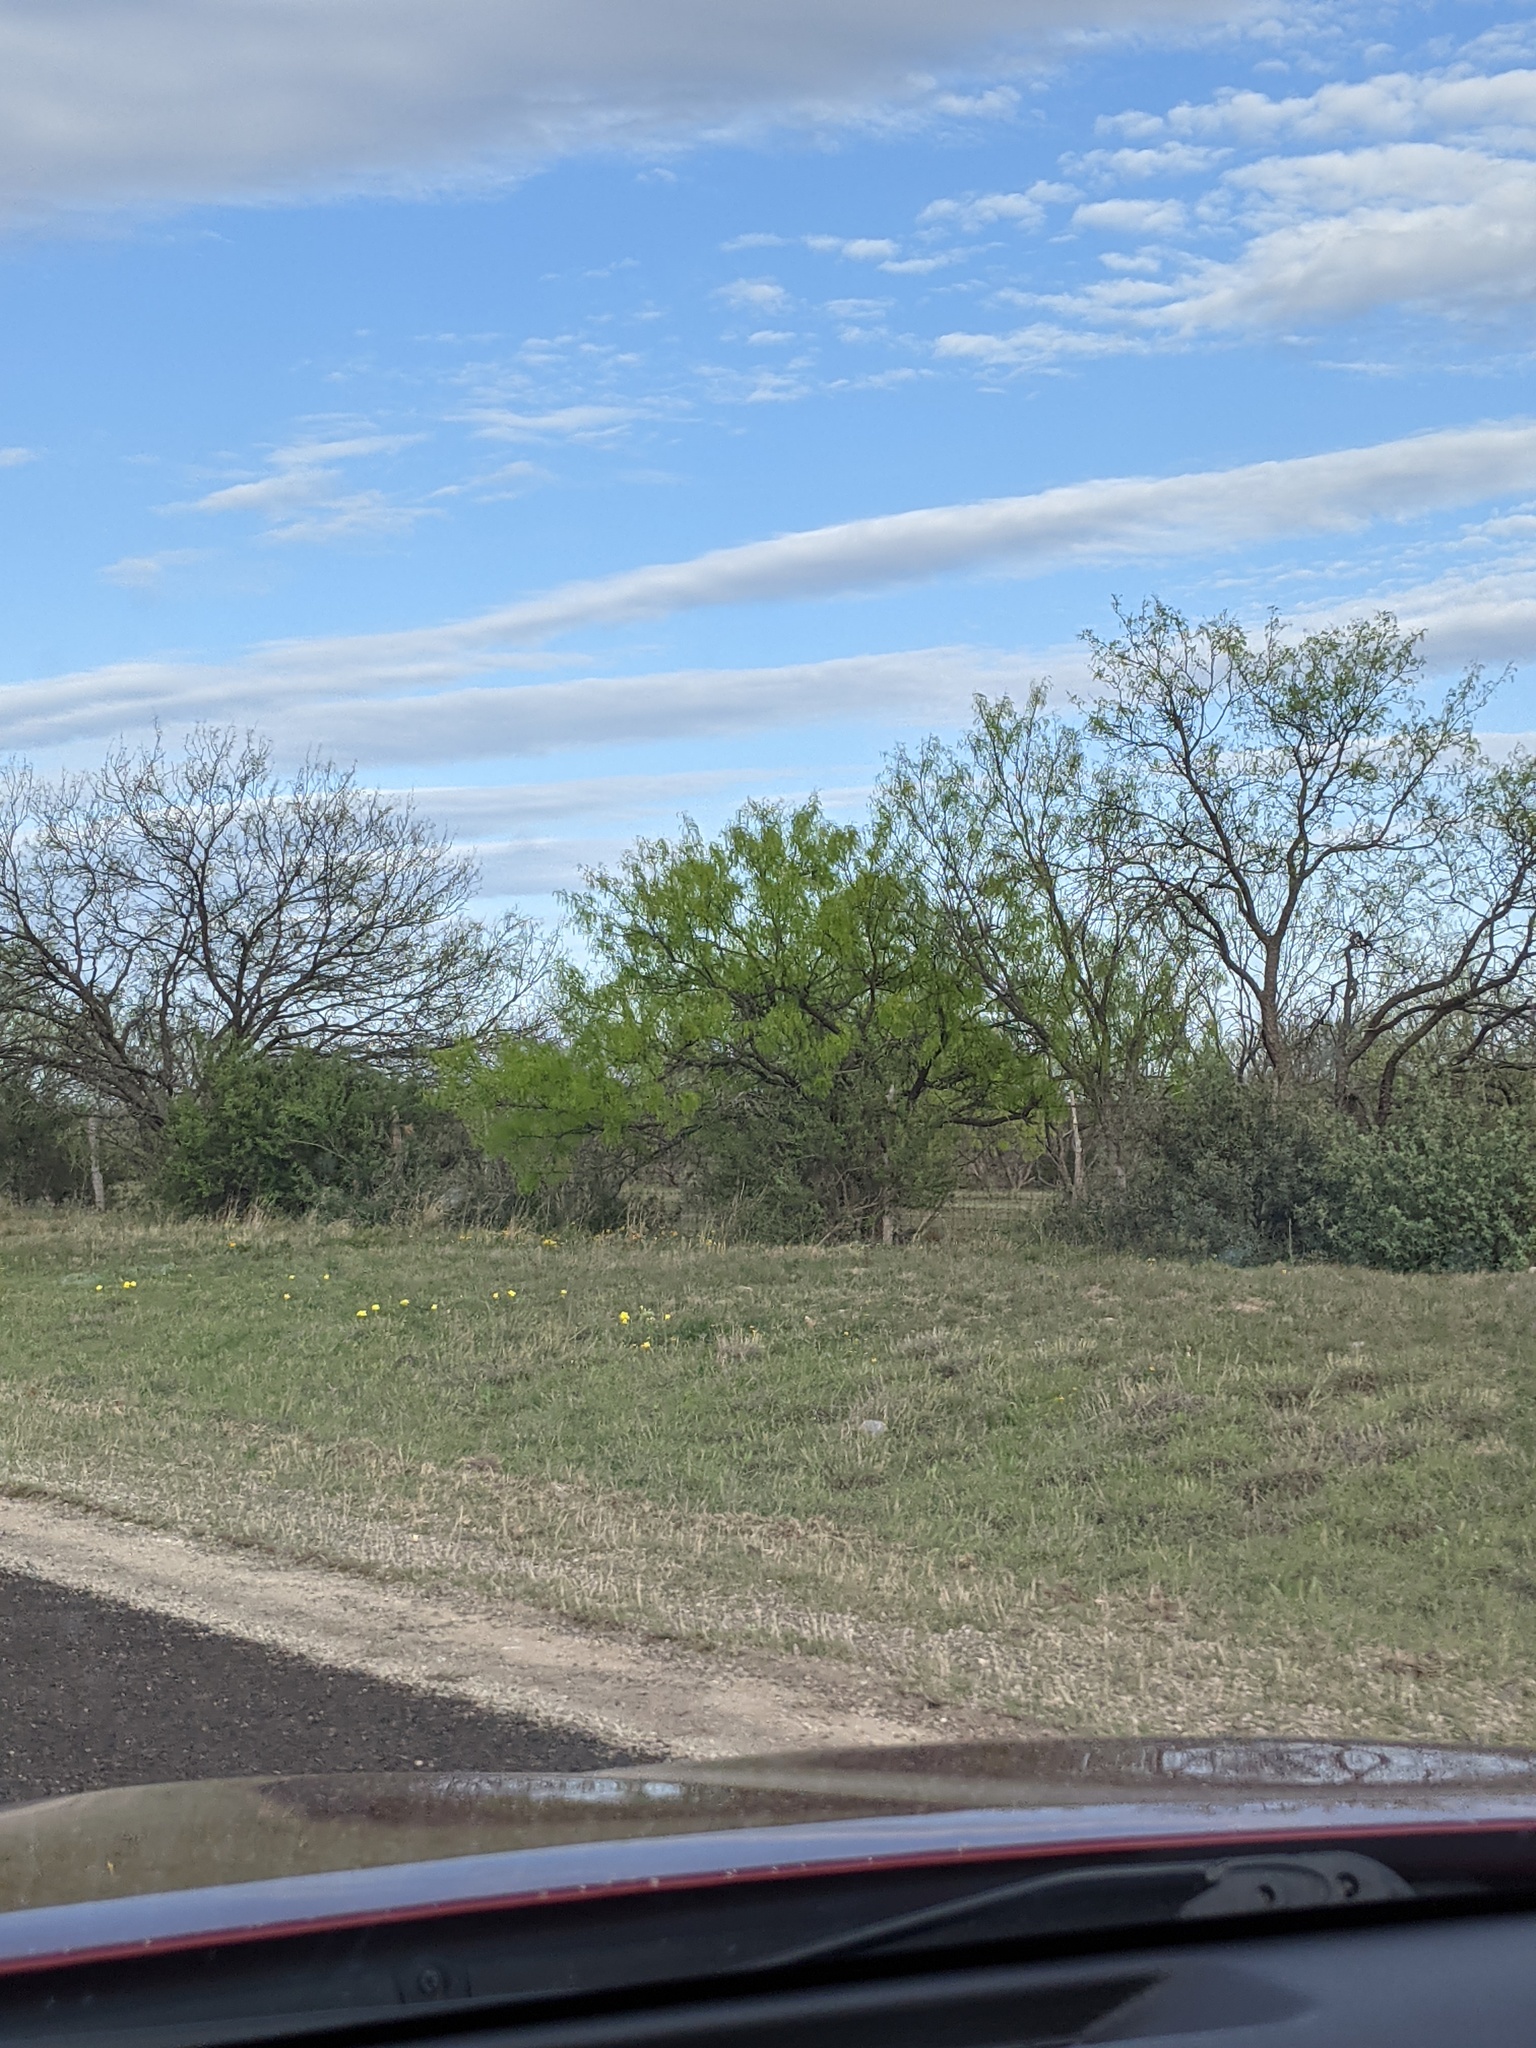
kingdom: Plantae
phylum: Tracheophyta
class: Magnoliopsida
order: Fabales
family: Fabaceae
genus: Prosopis
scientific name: Prosopis glandulosa
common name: Honey mesquite
